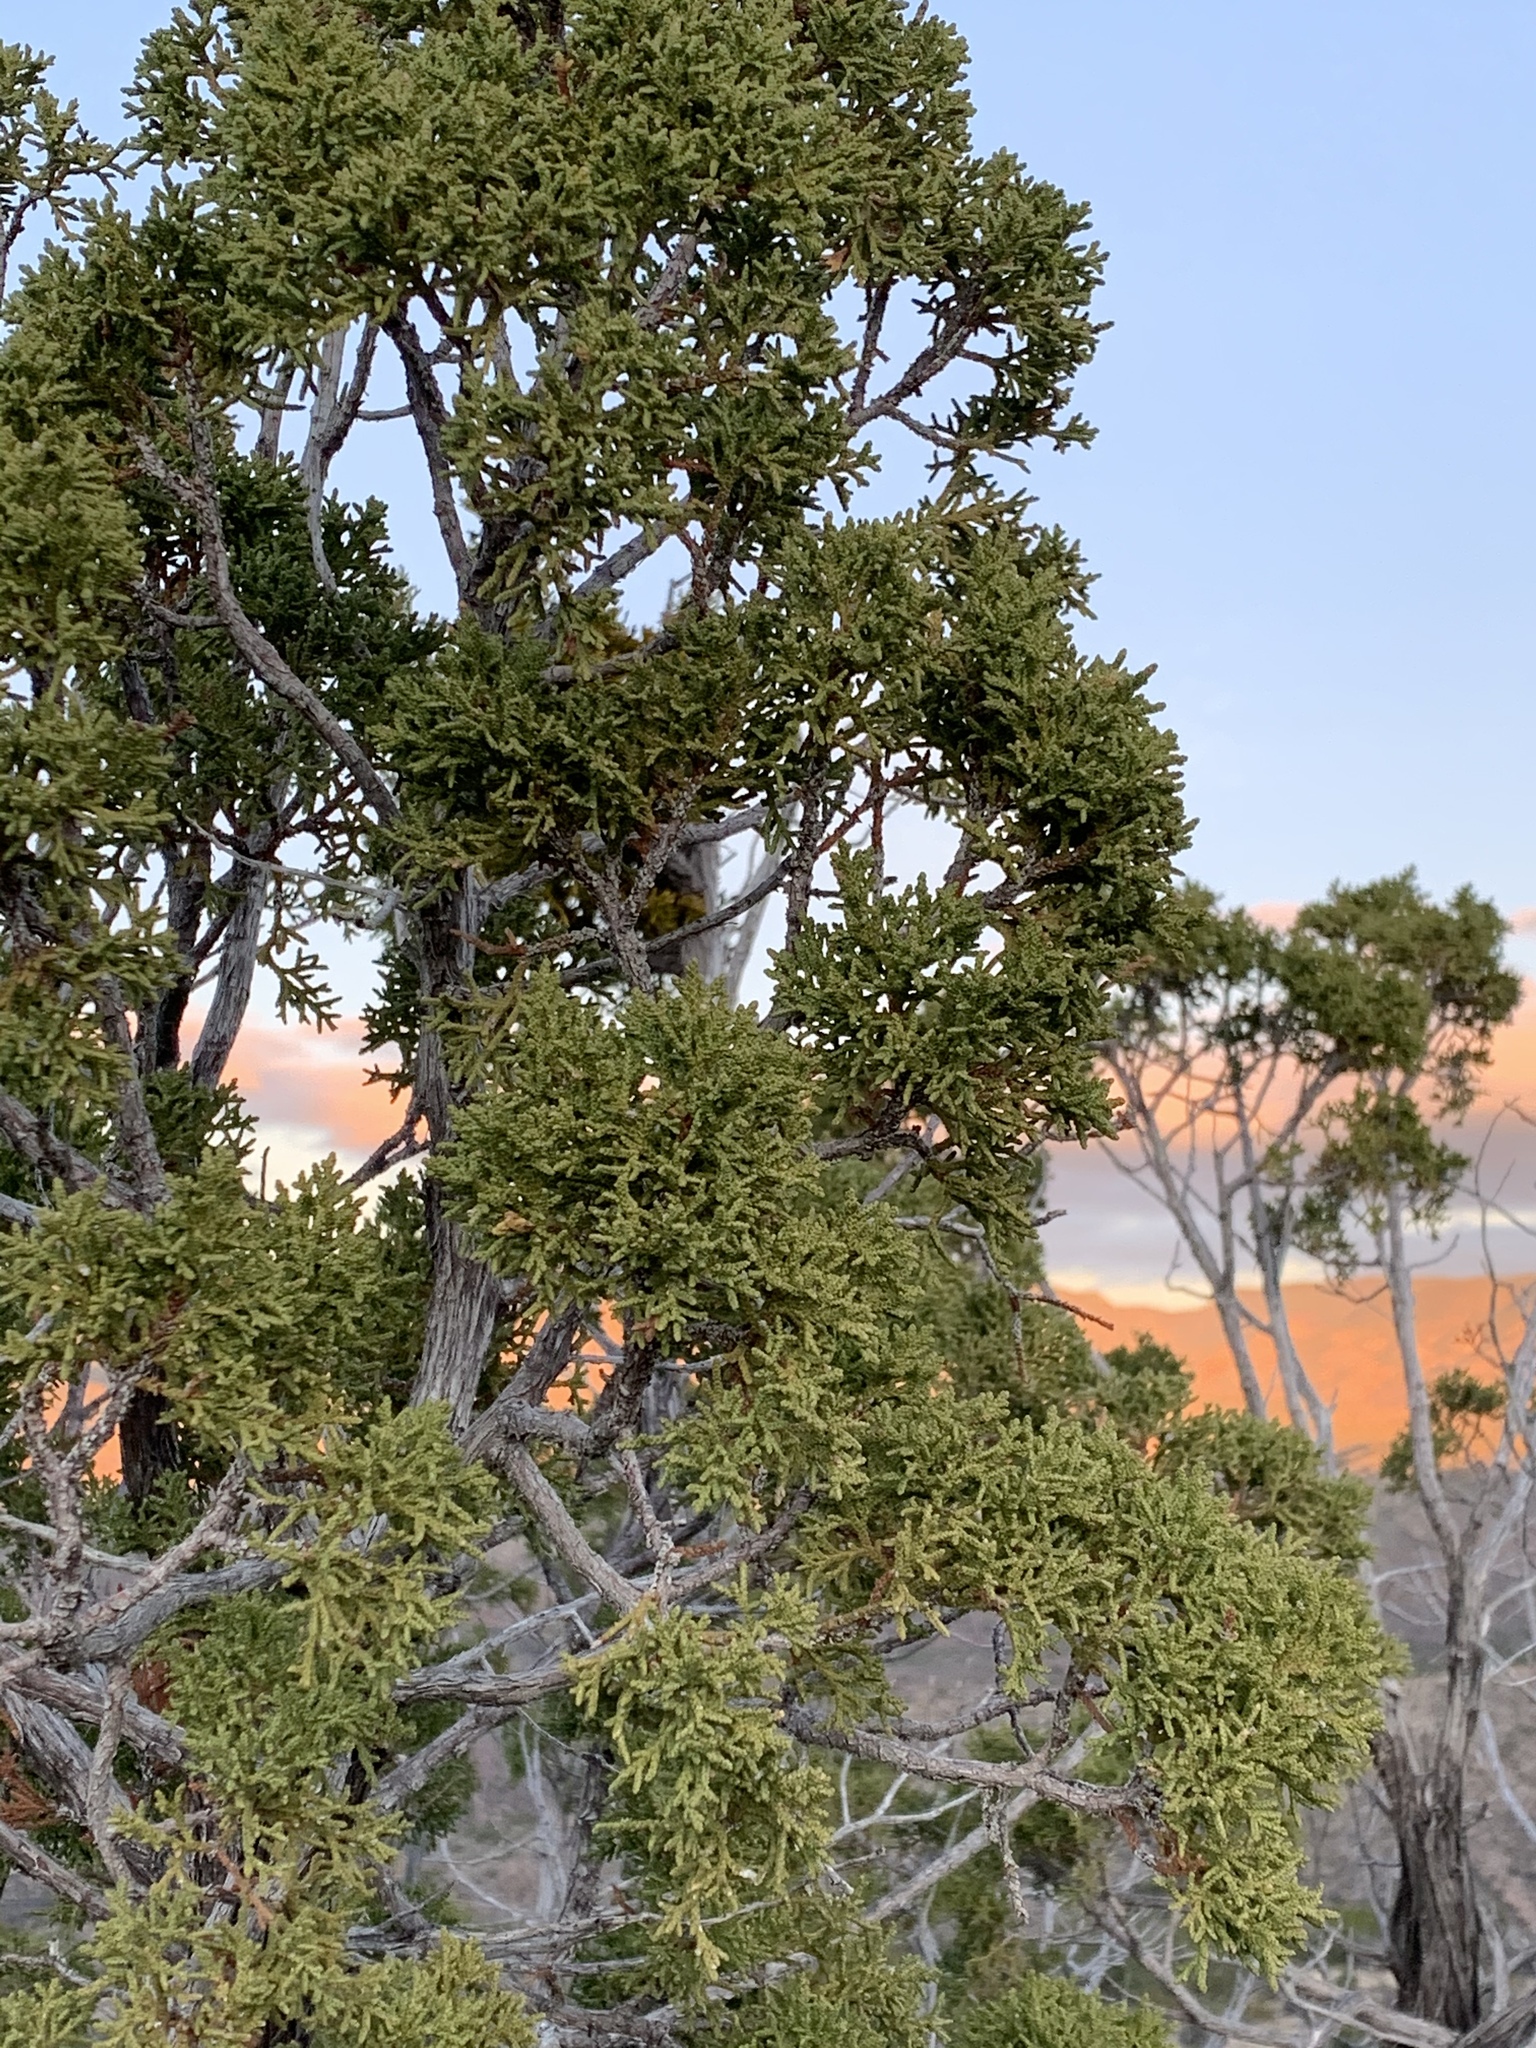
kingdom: Plantae
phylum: Tracheophyta
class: Pinopsida
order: Pinales
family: Cupressaceae
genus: Juniperus
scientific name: Juniperus monosperma
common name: One-seed juniper
